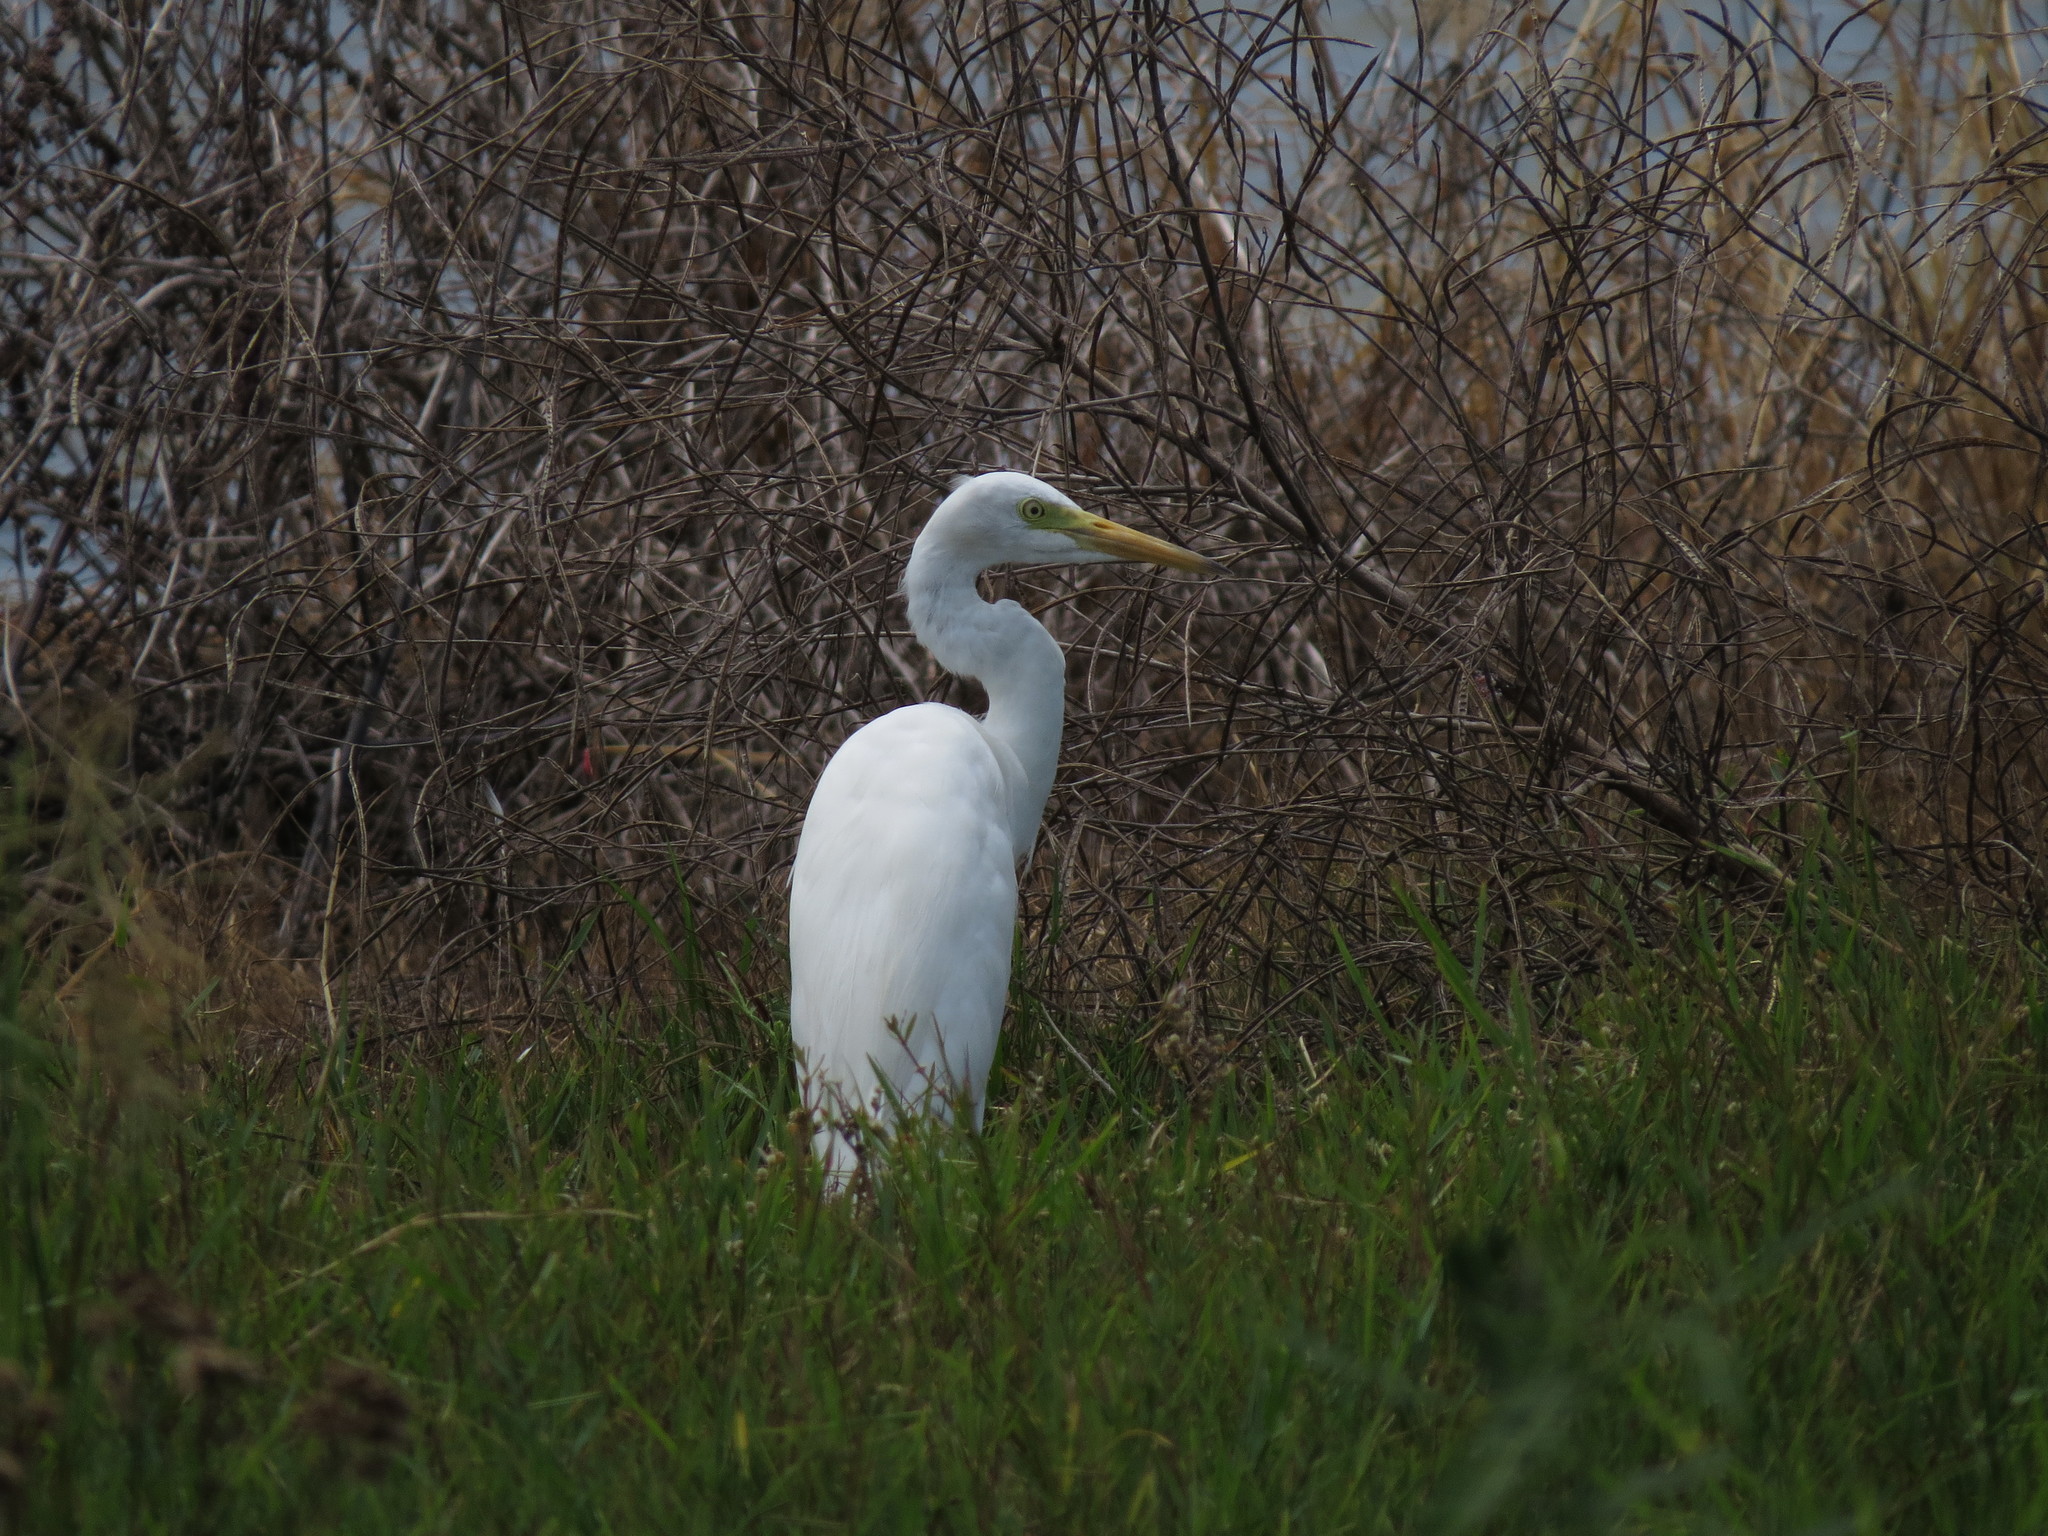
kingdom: Animalia
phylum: Chordata
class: Aves
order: Pelecaniformes
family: Ardeidae
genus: Egretta
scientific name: Egretta intermedia
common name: Intermediate egret
